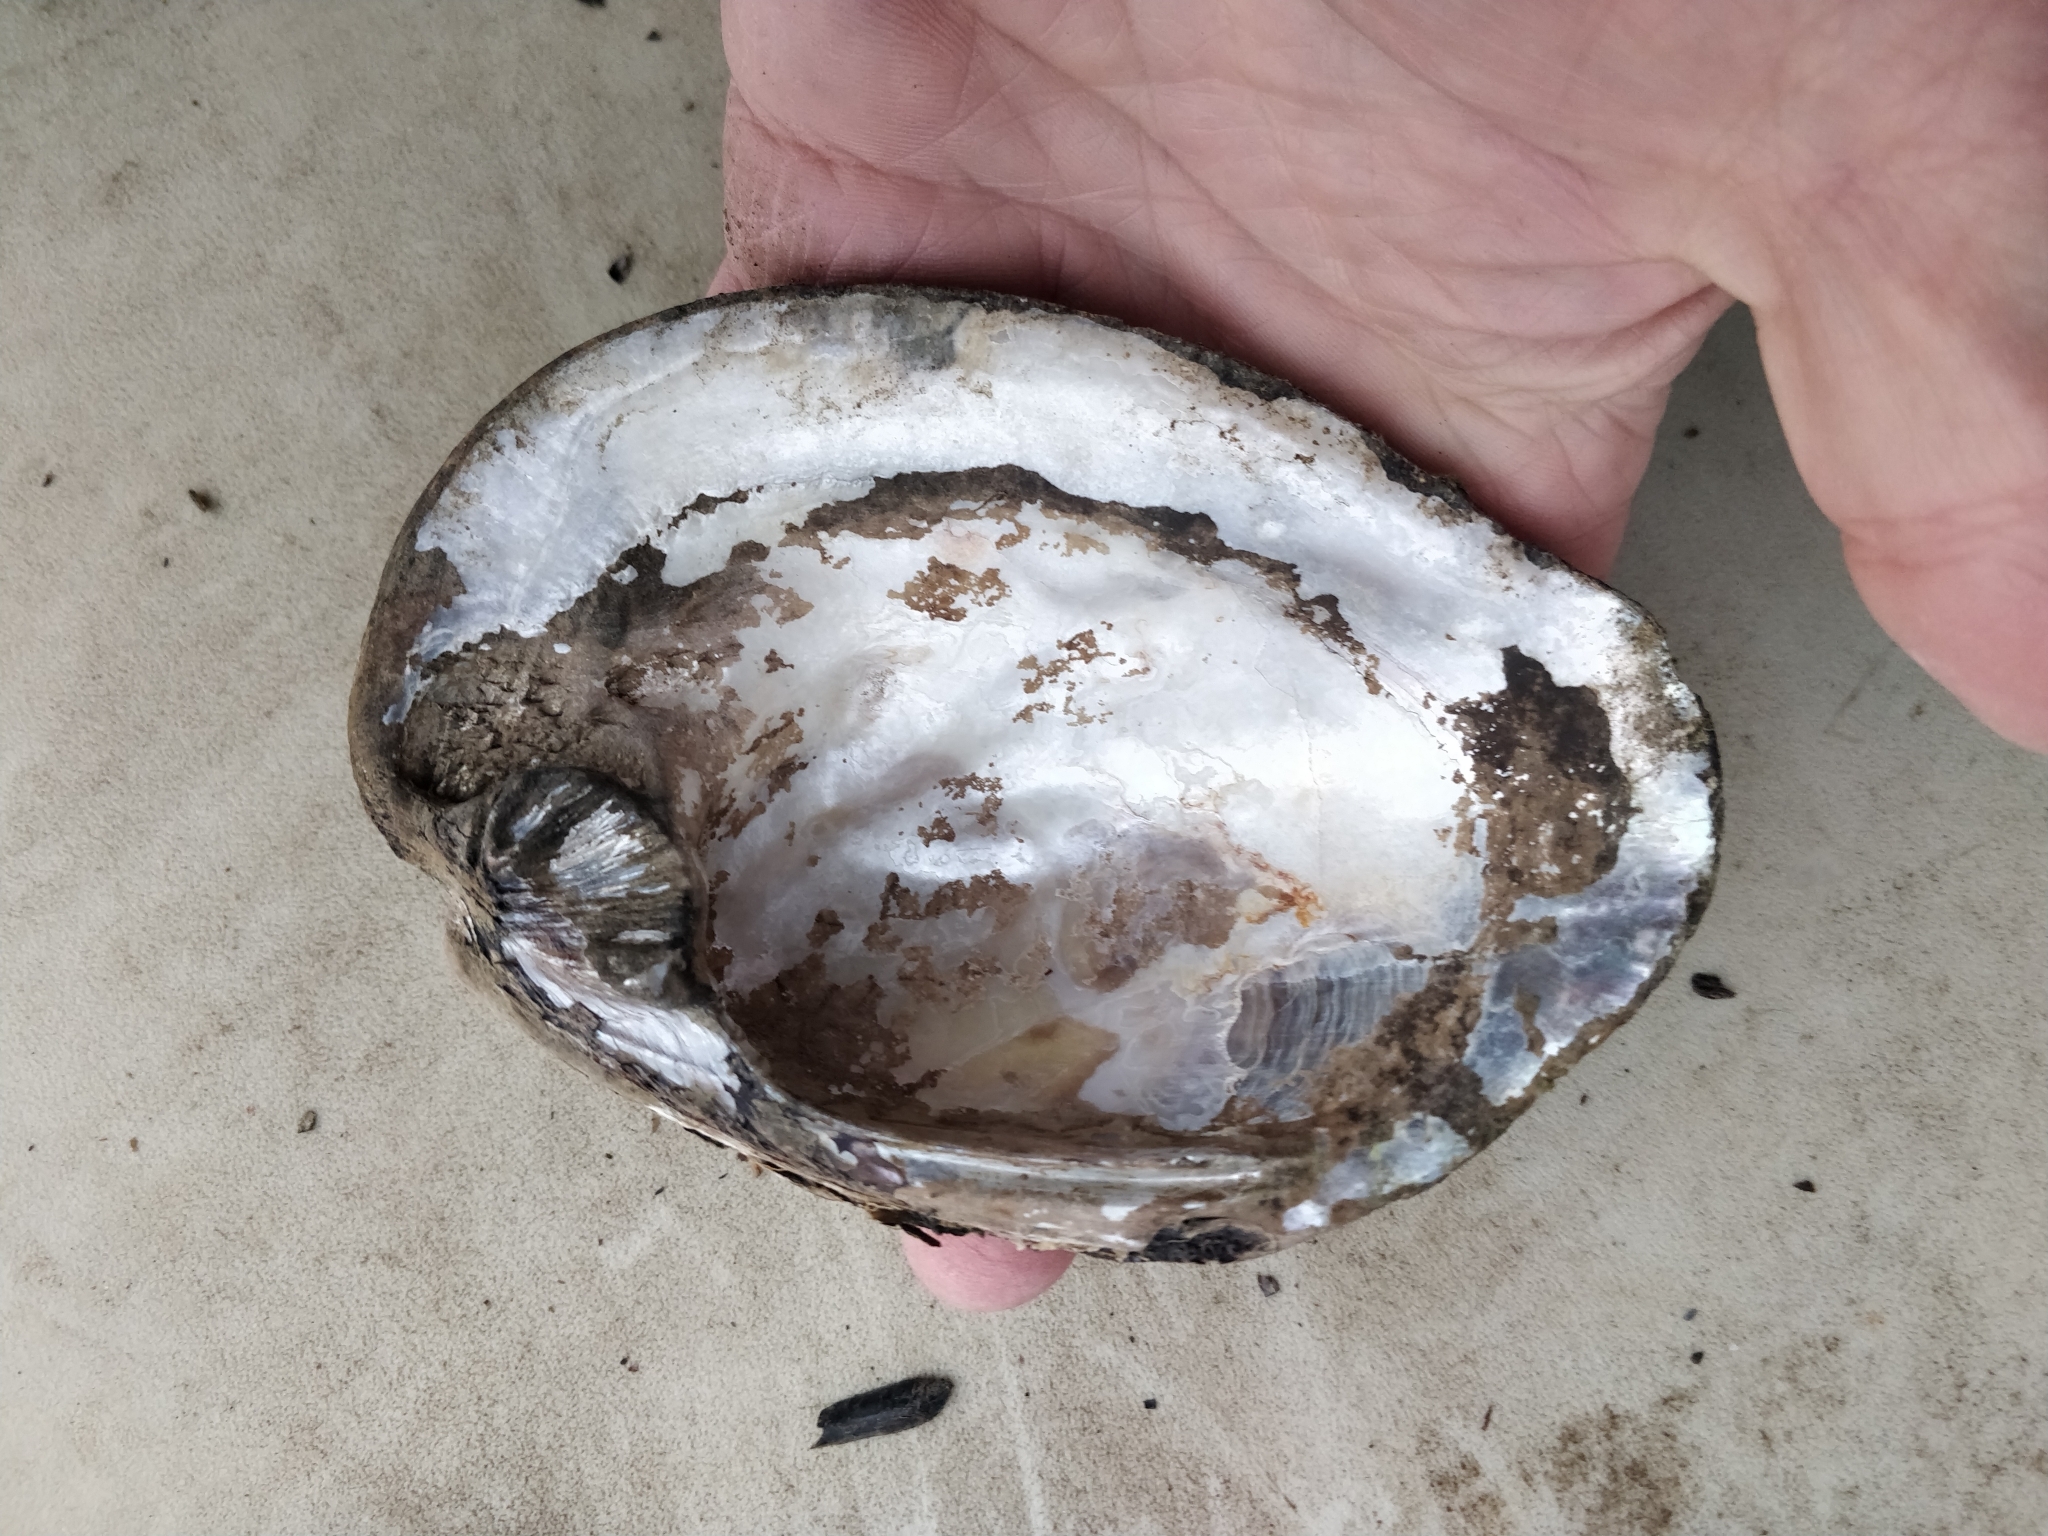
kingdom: Animalia
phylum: Mollusca
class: Bivalvia
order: Unionida
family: Unionidae
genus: Amblema
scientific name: Amblema plicata
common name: Threeridge
